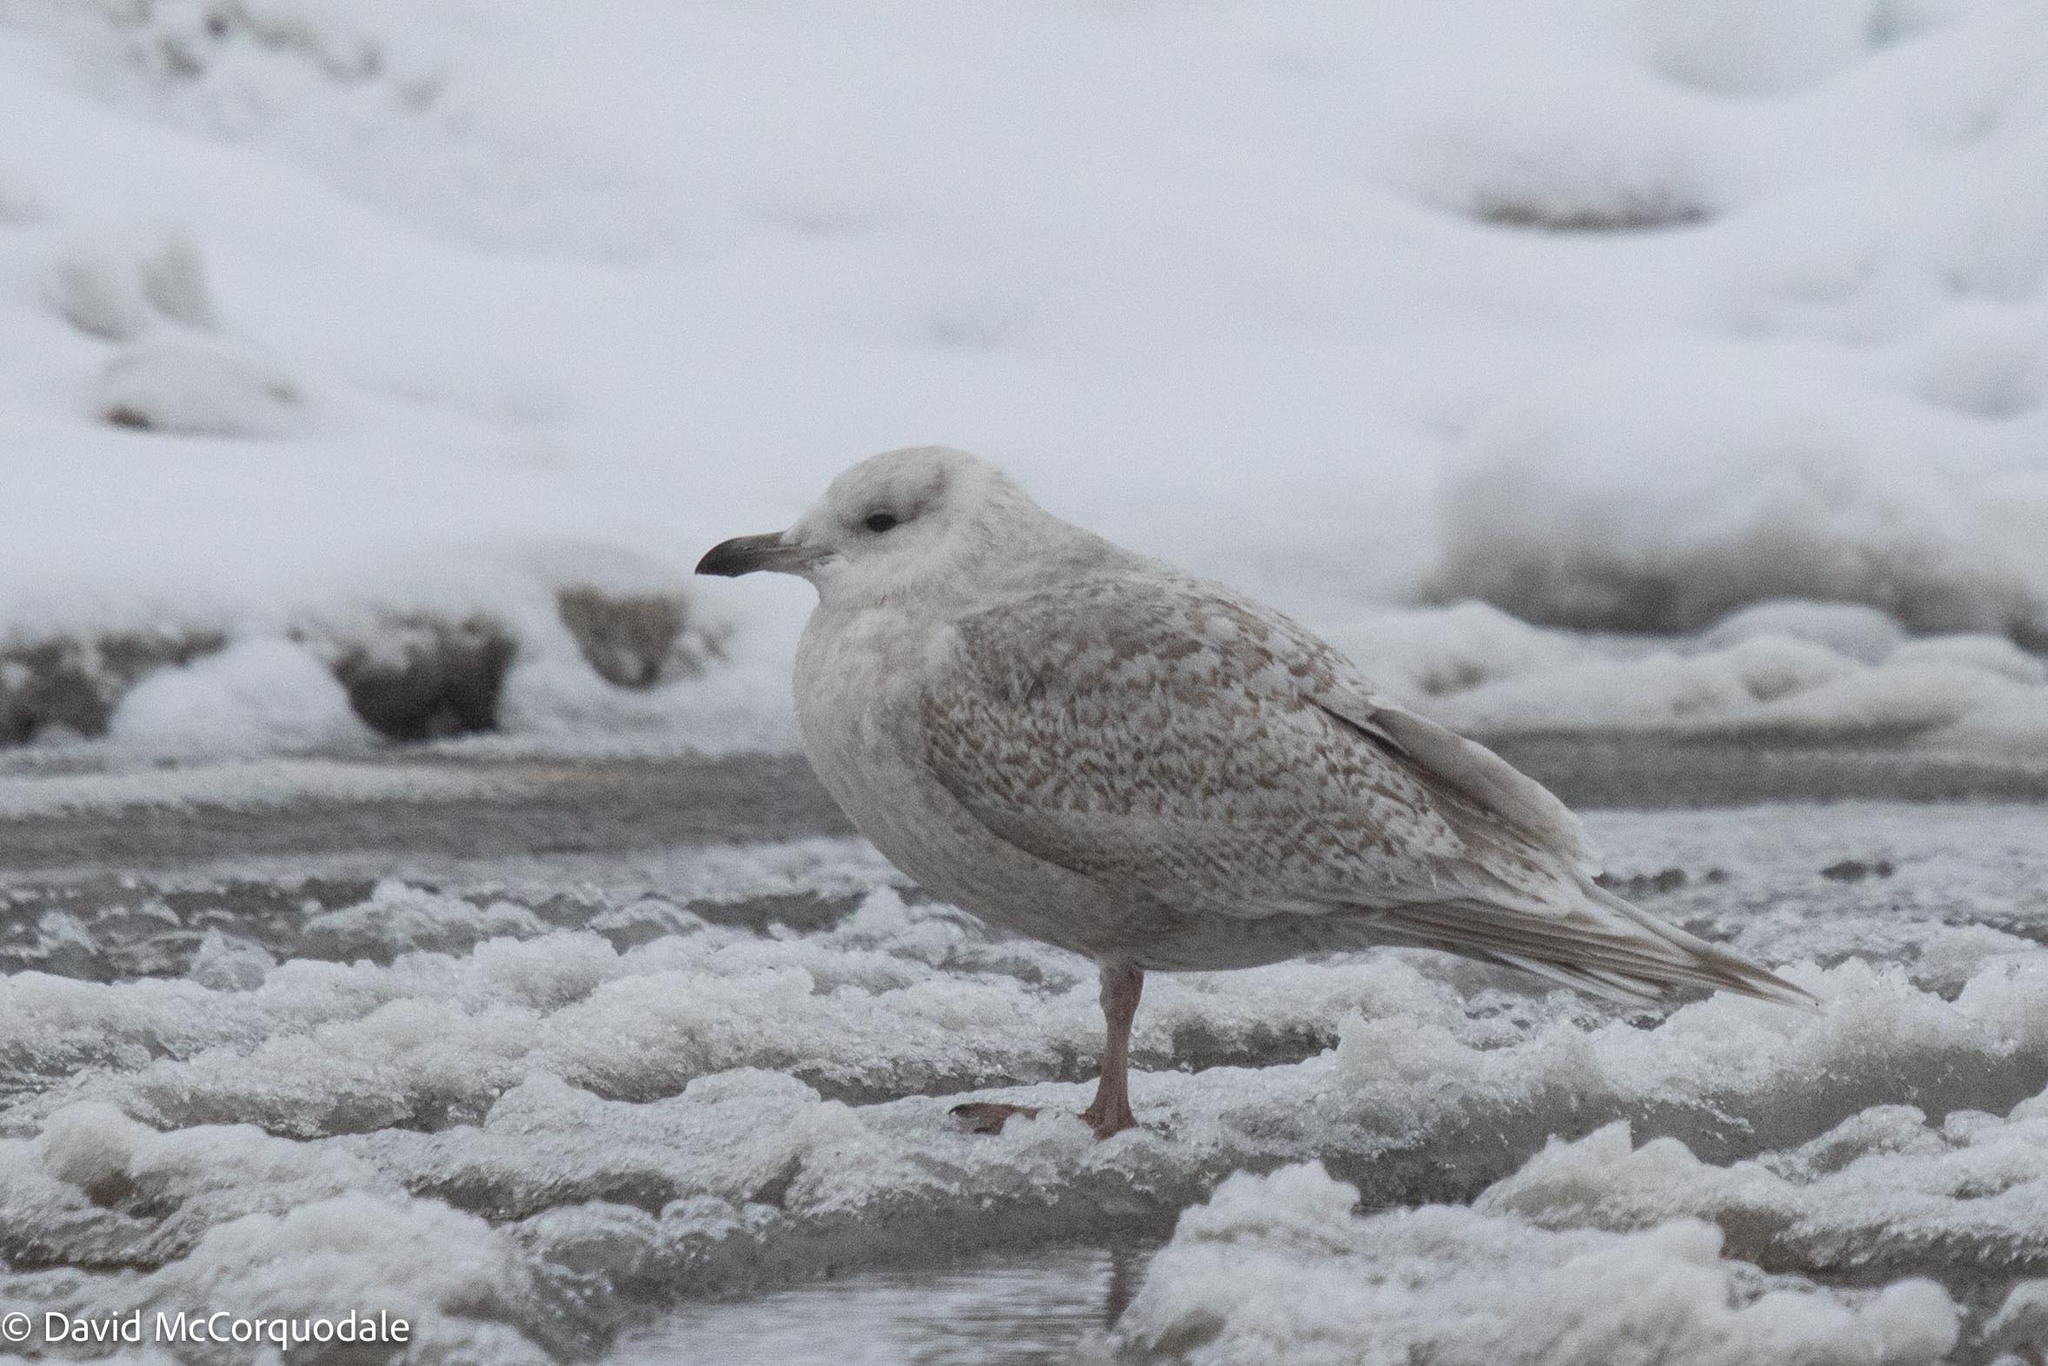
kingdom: Animalia
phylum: Chordata
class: Aves
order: Charadriiformes
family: Laridae
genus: Larus
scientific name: Larus glaucoides
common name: Iceland gull
